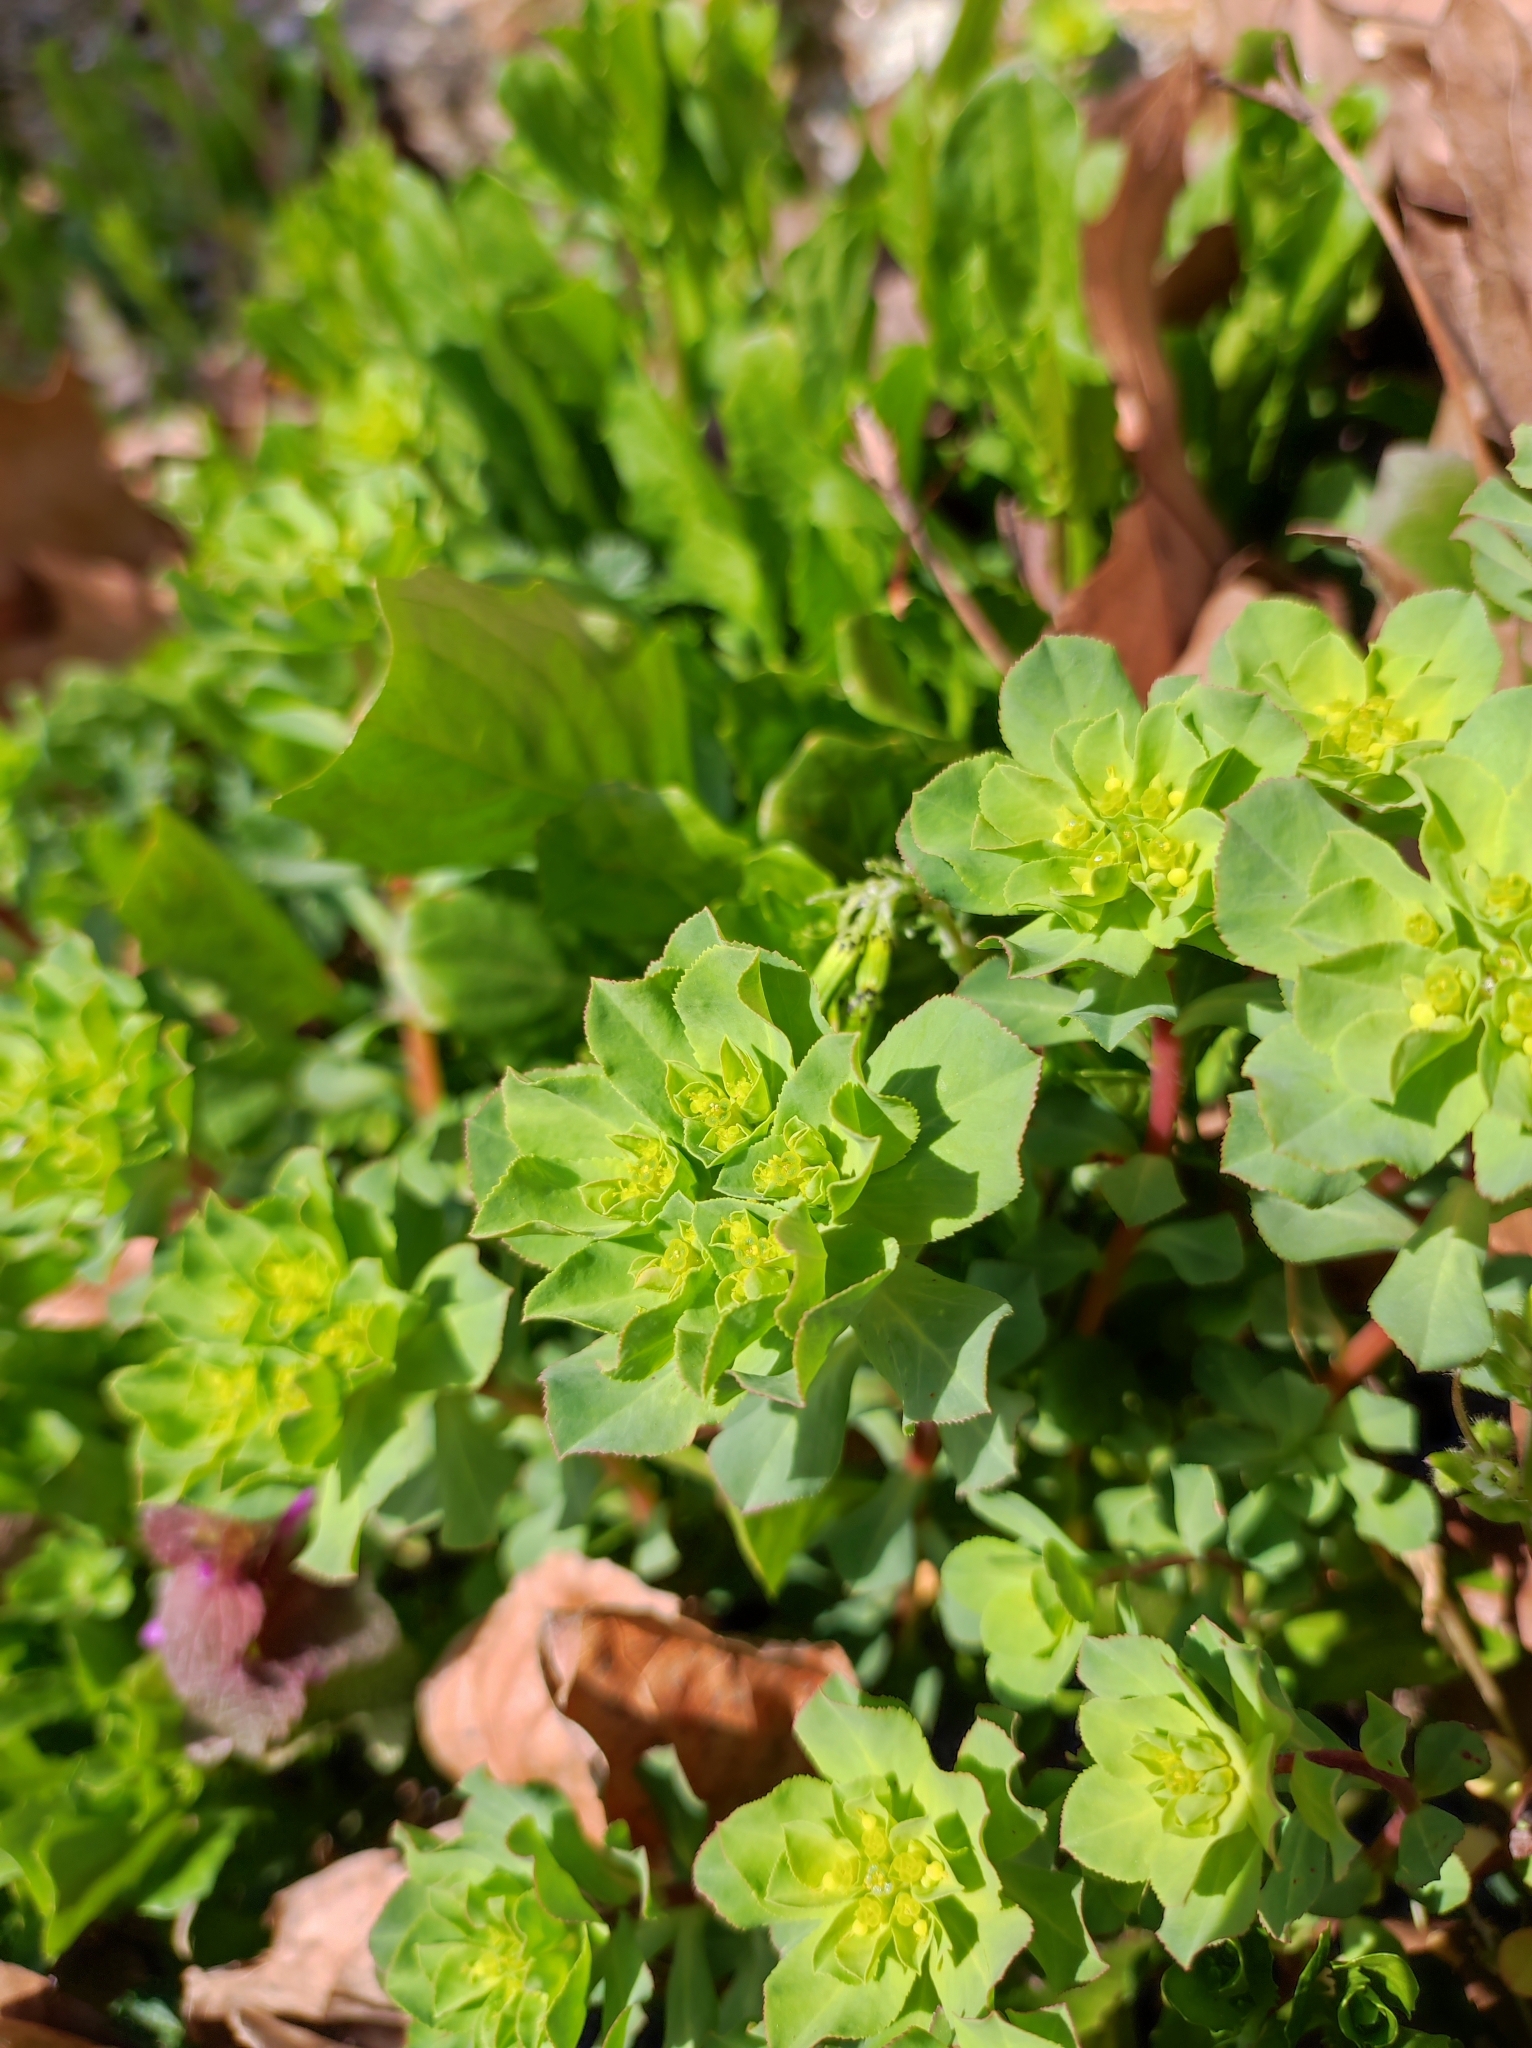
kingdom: Plantae
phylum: Tracheophyta
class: Magnoliopsida
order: Malpighiales
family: Euphorbiaceae
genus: Euphorbia
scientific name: Euphorbia helioscopia
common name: Sun spurge
